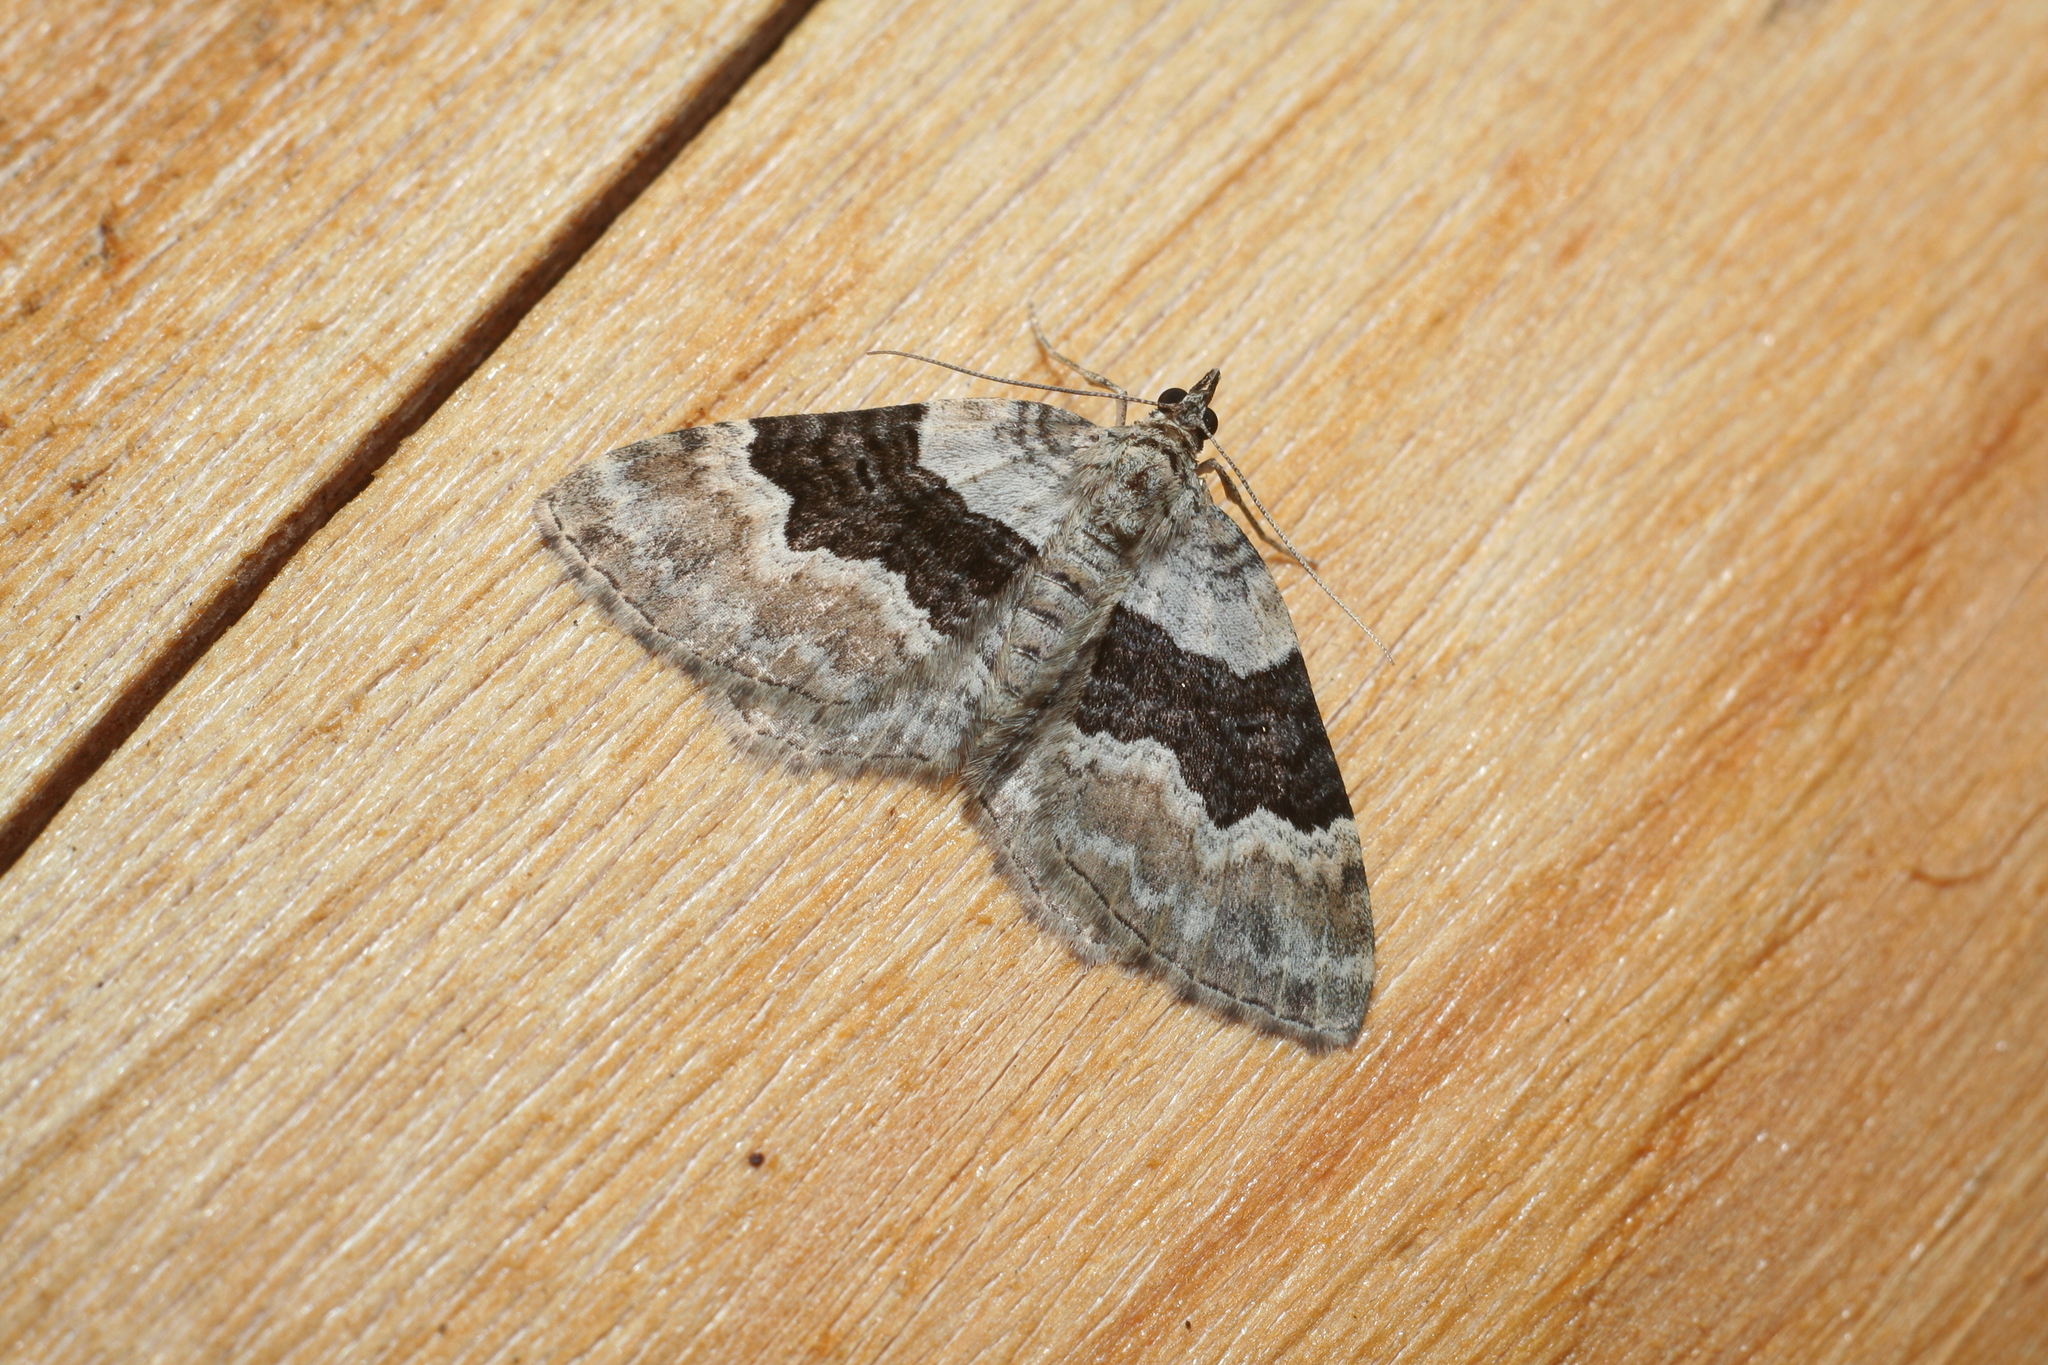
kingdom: Animalia
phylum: Arthropoda
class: Insecta
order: Lepidoptera
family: Geometridae
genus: Xanthorhoe
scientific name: Xanthorhoe quadrifasiata
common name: Large twin-spot carpet
